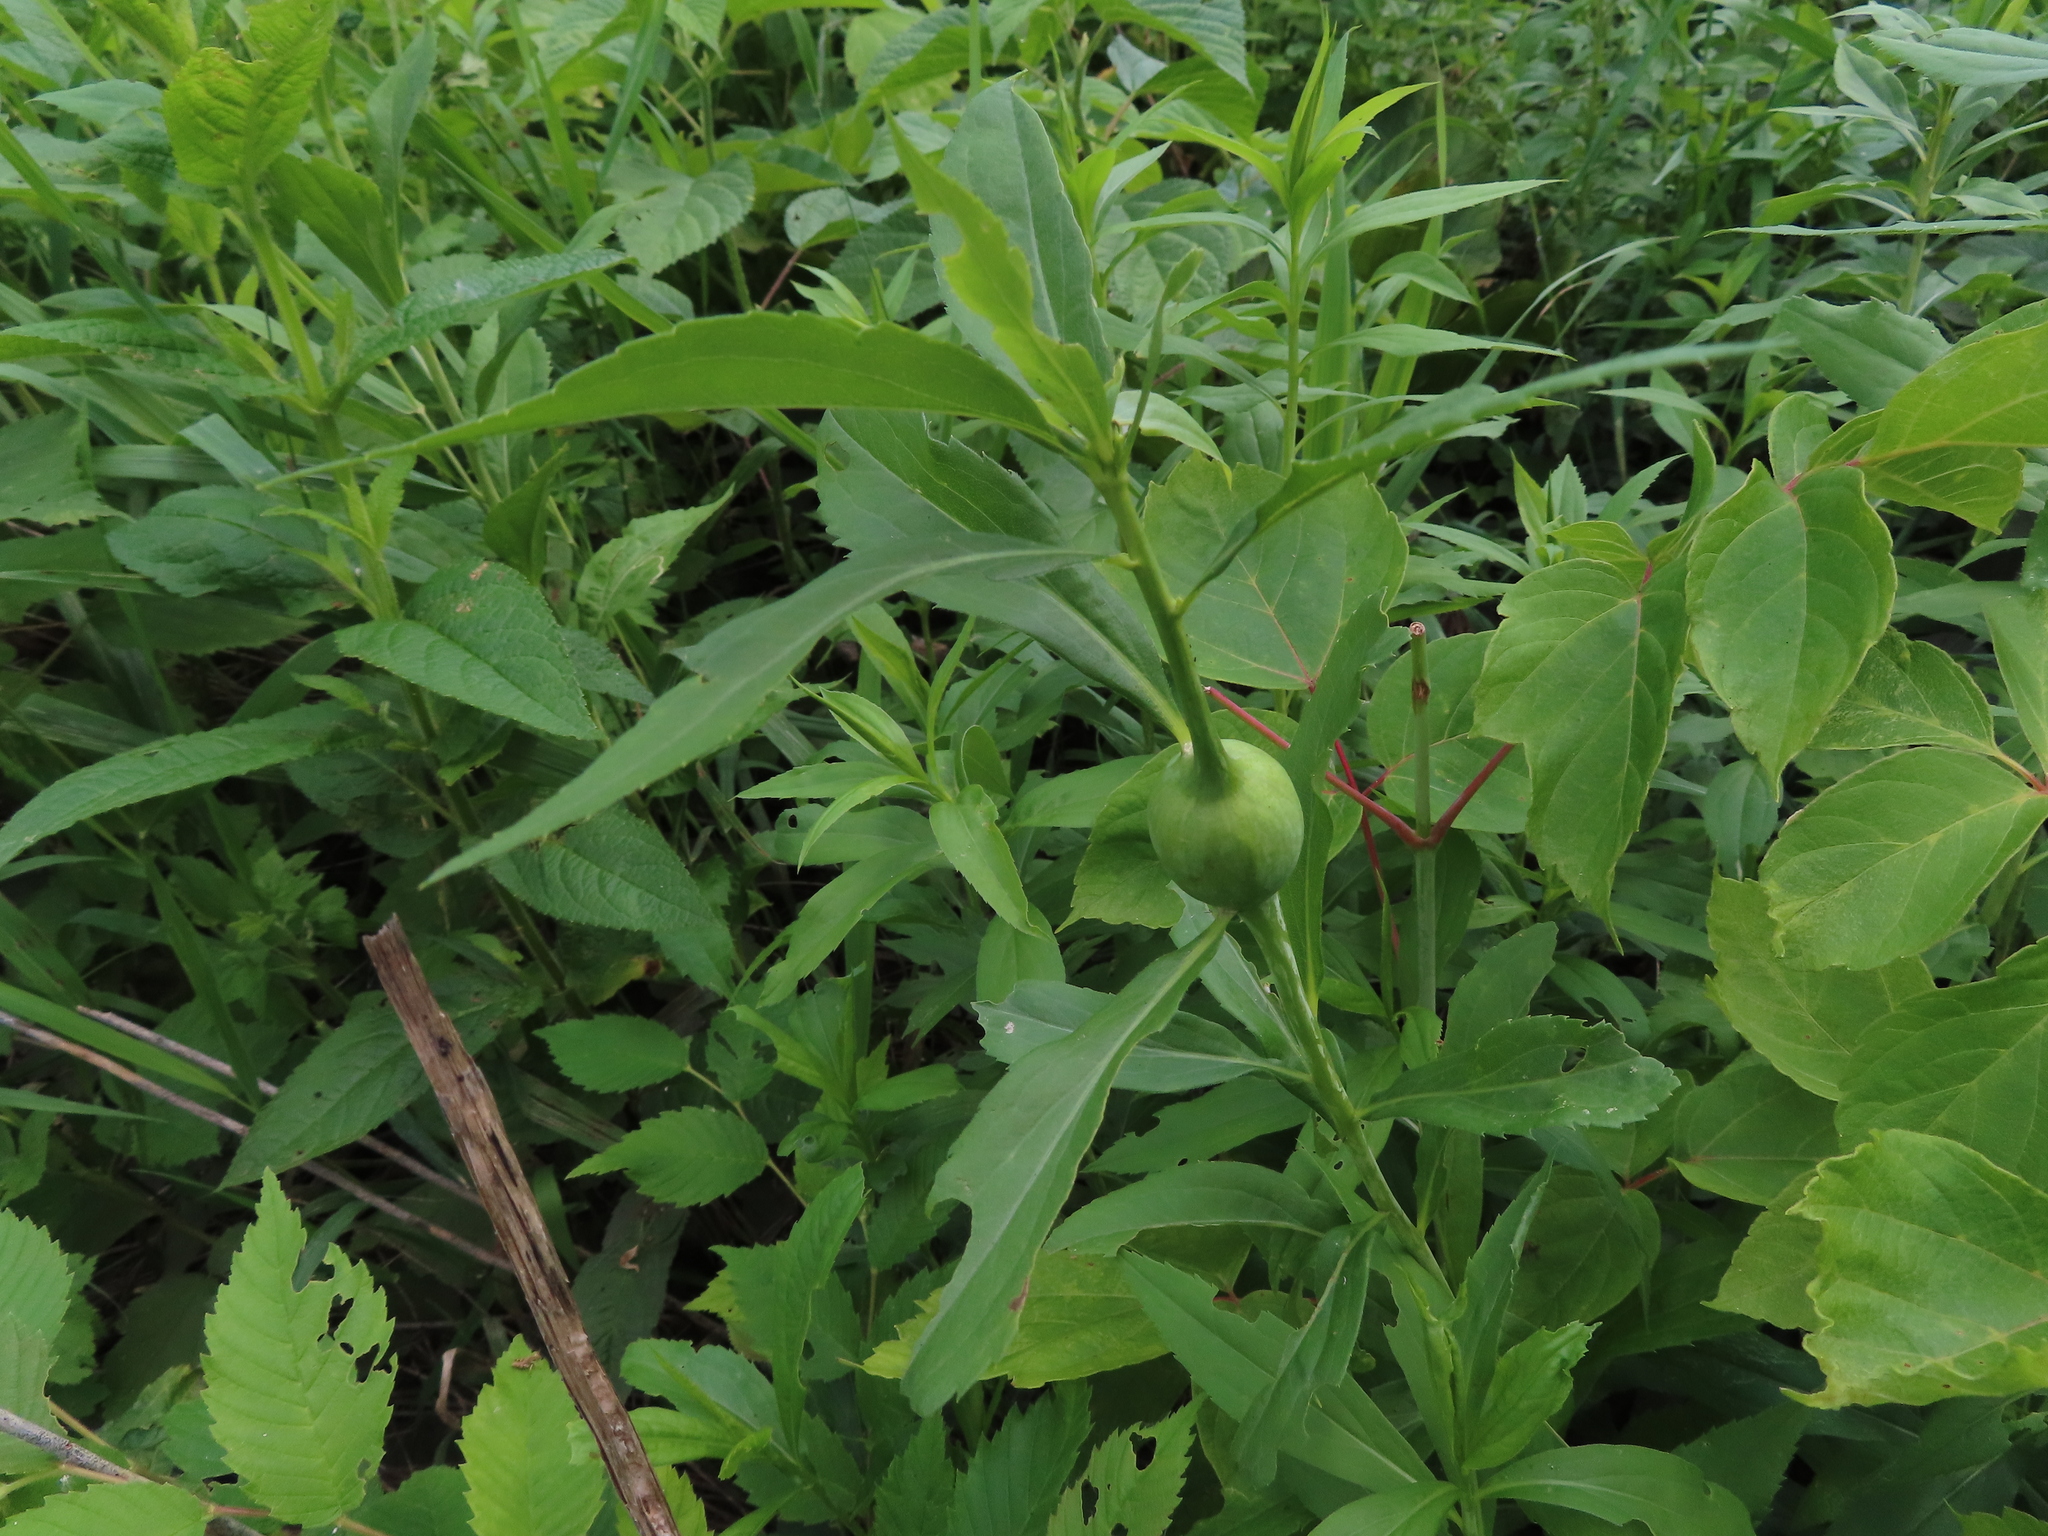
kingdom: Animalia
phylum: Arthropoda
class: Insecta
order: Diptera
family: Tephritidae
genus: Eurosta
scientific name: Eurosta solidaginis
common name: Goldenrod gall fly
